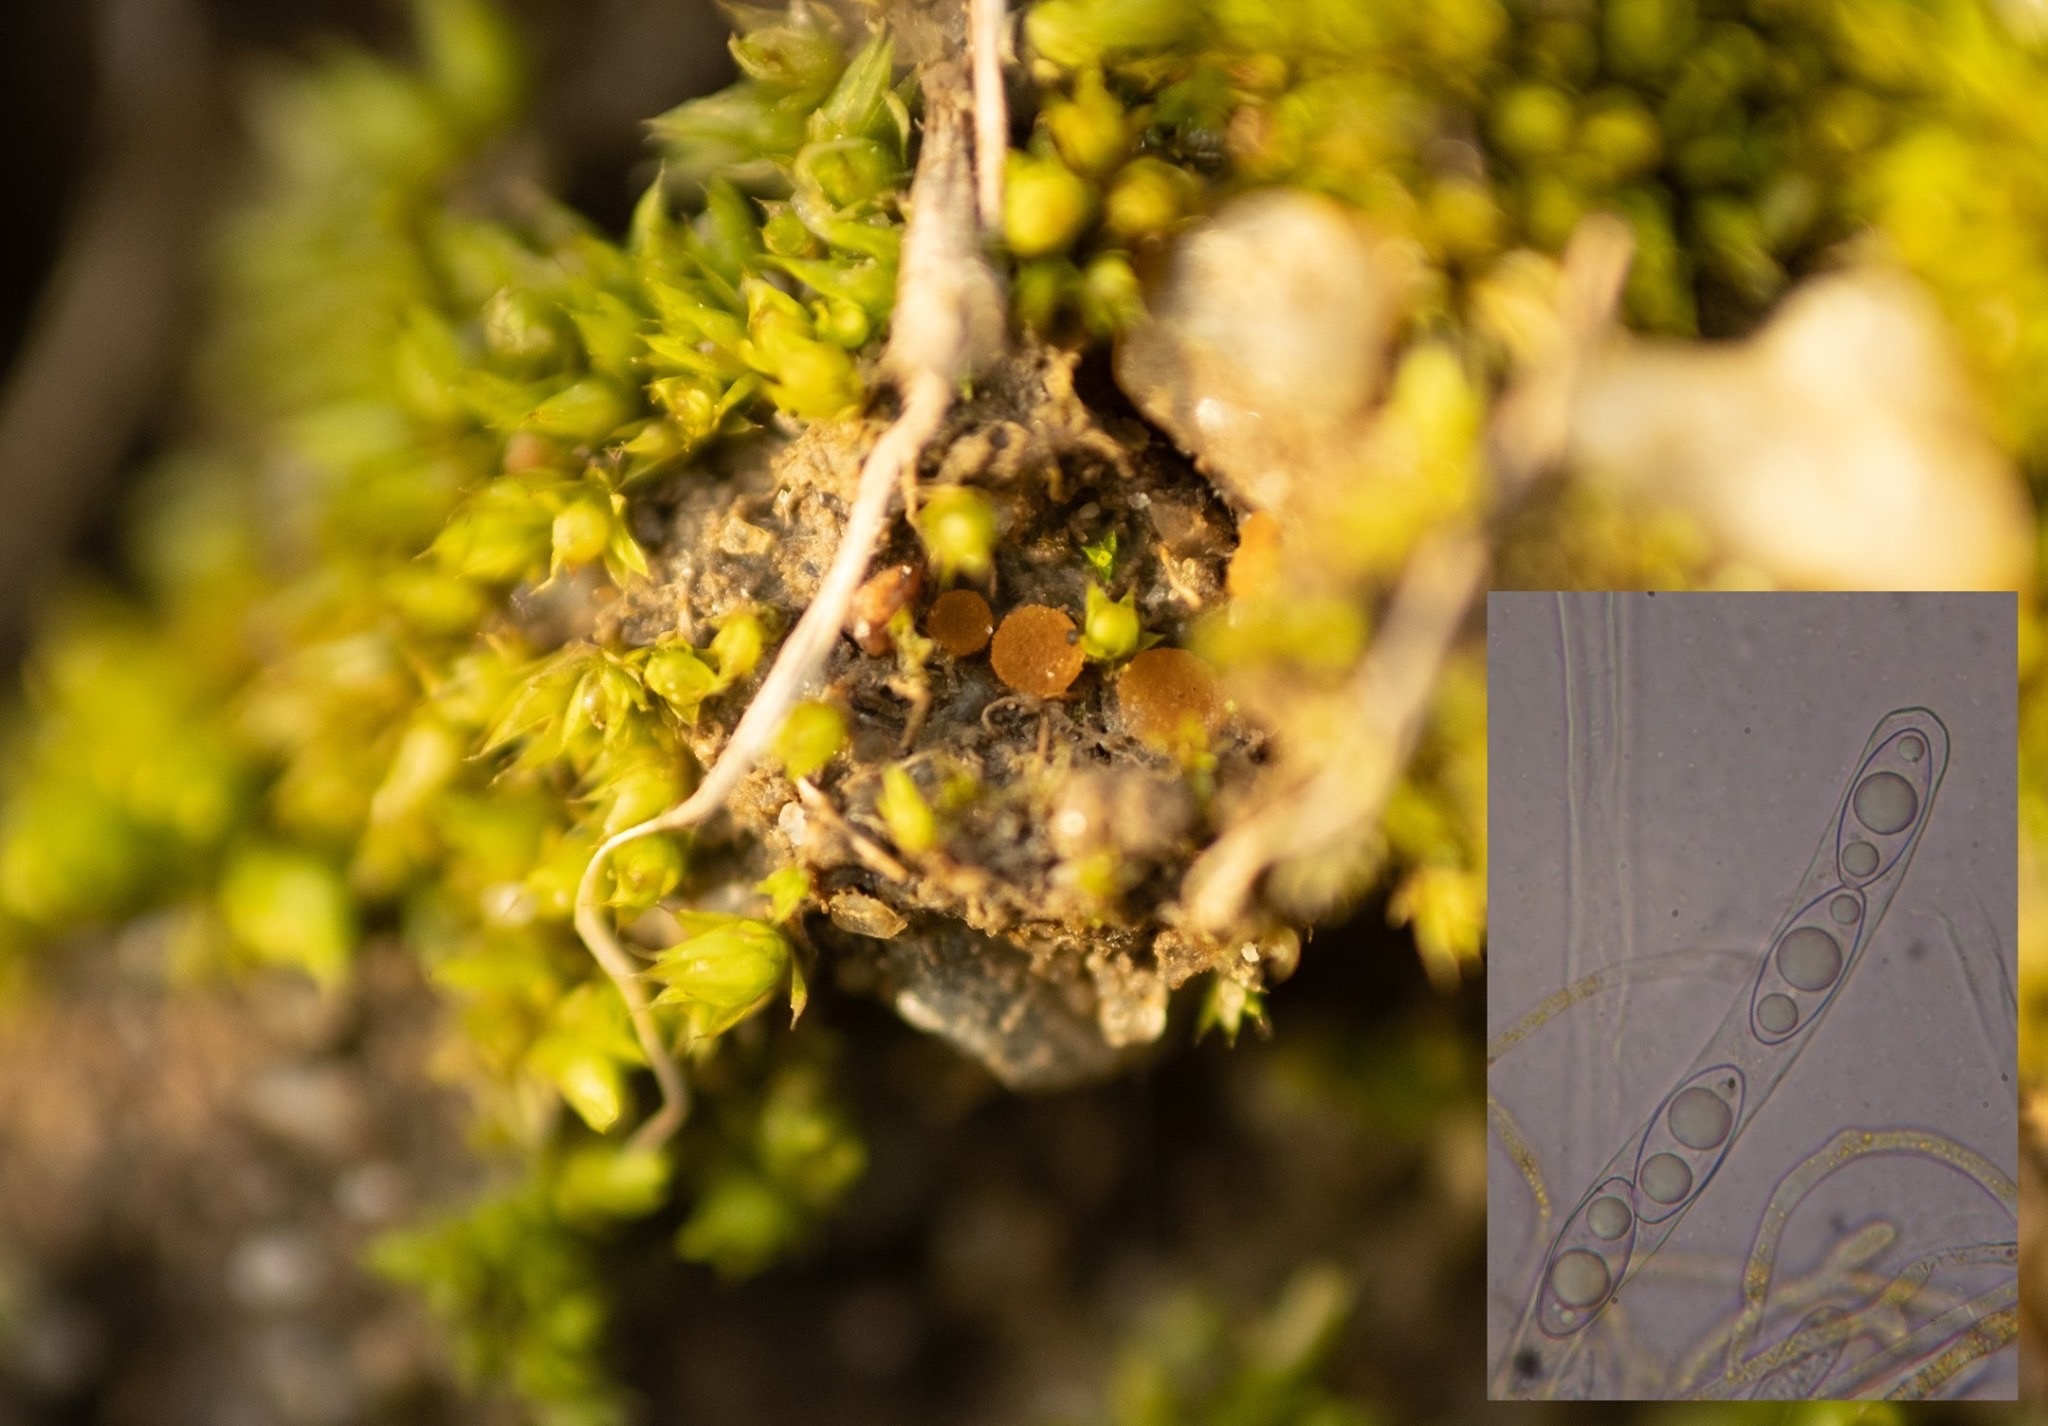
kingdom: Fungi
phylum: Ascomycota
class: Pezizomycetes
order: Pezizales
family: Pyronemataceae
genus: Octospora
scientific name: Octospora axillaris
